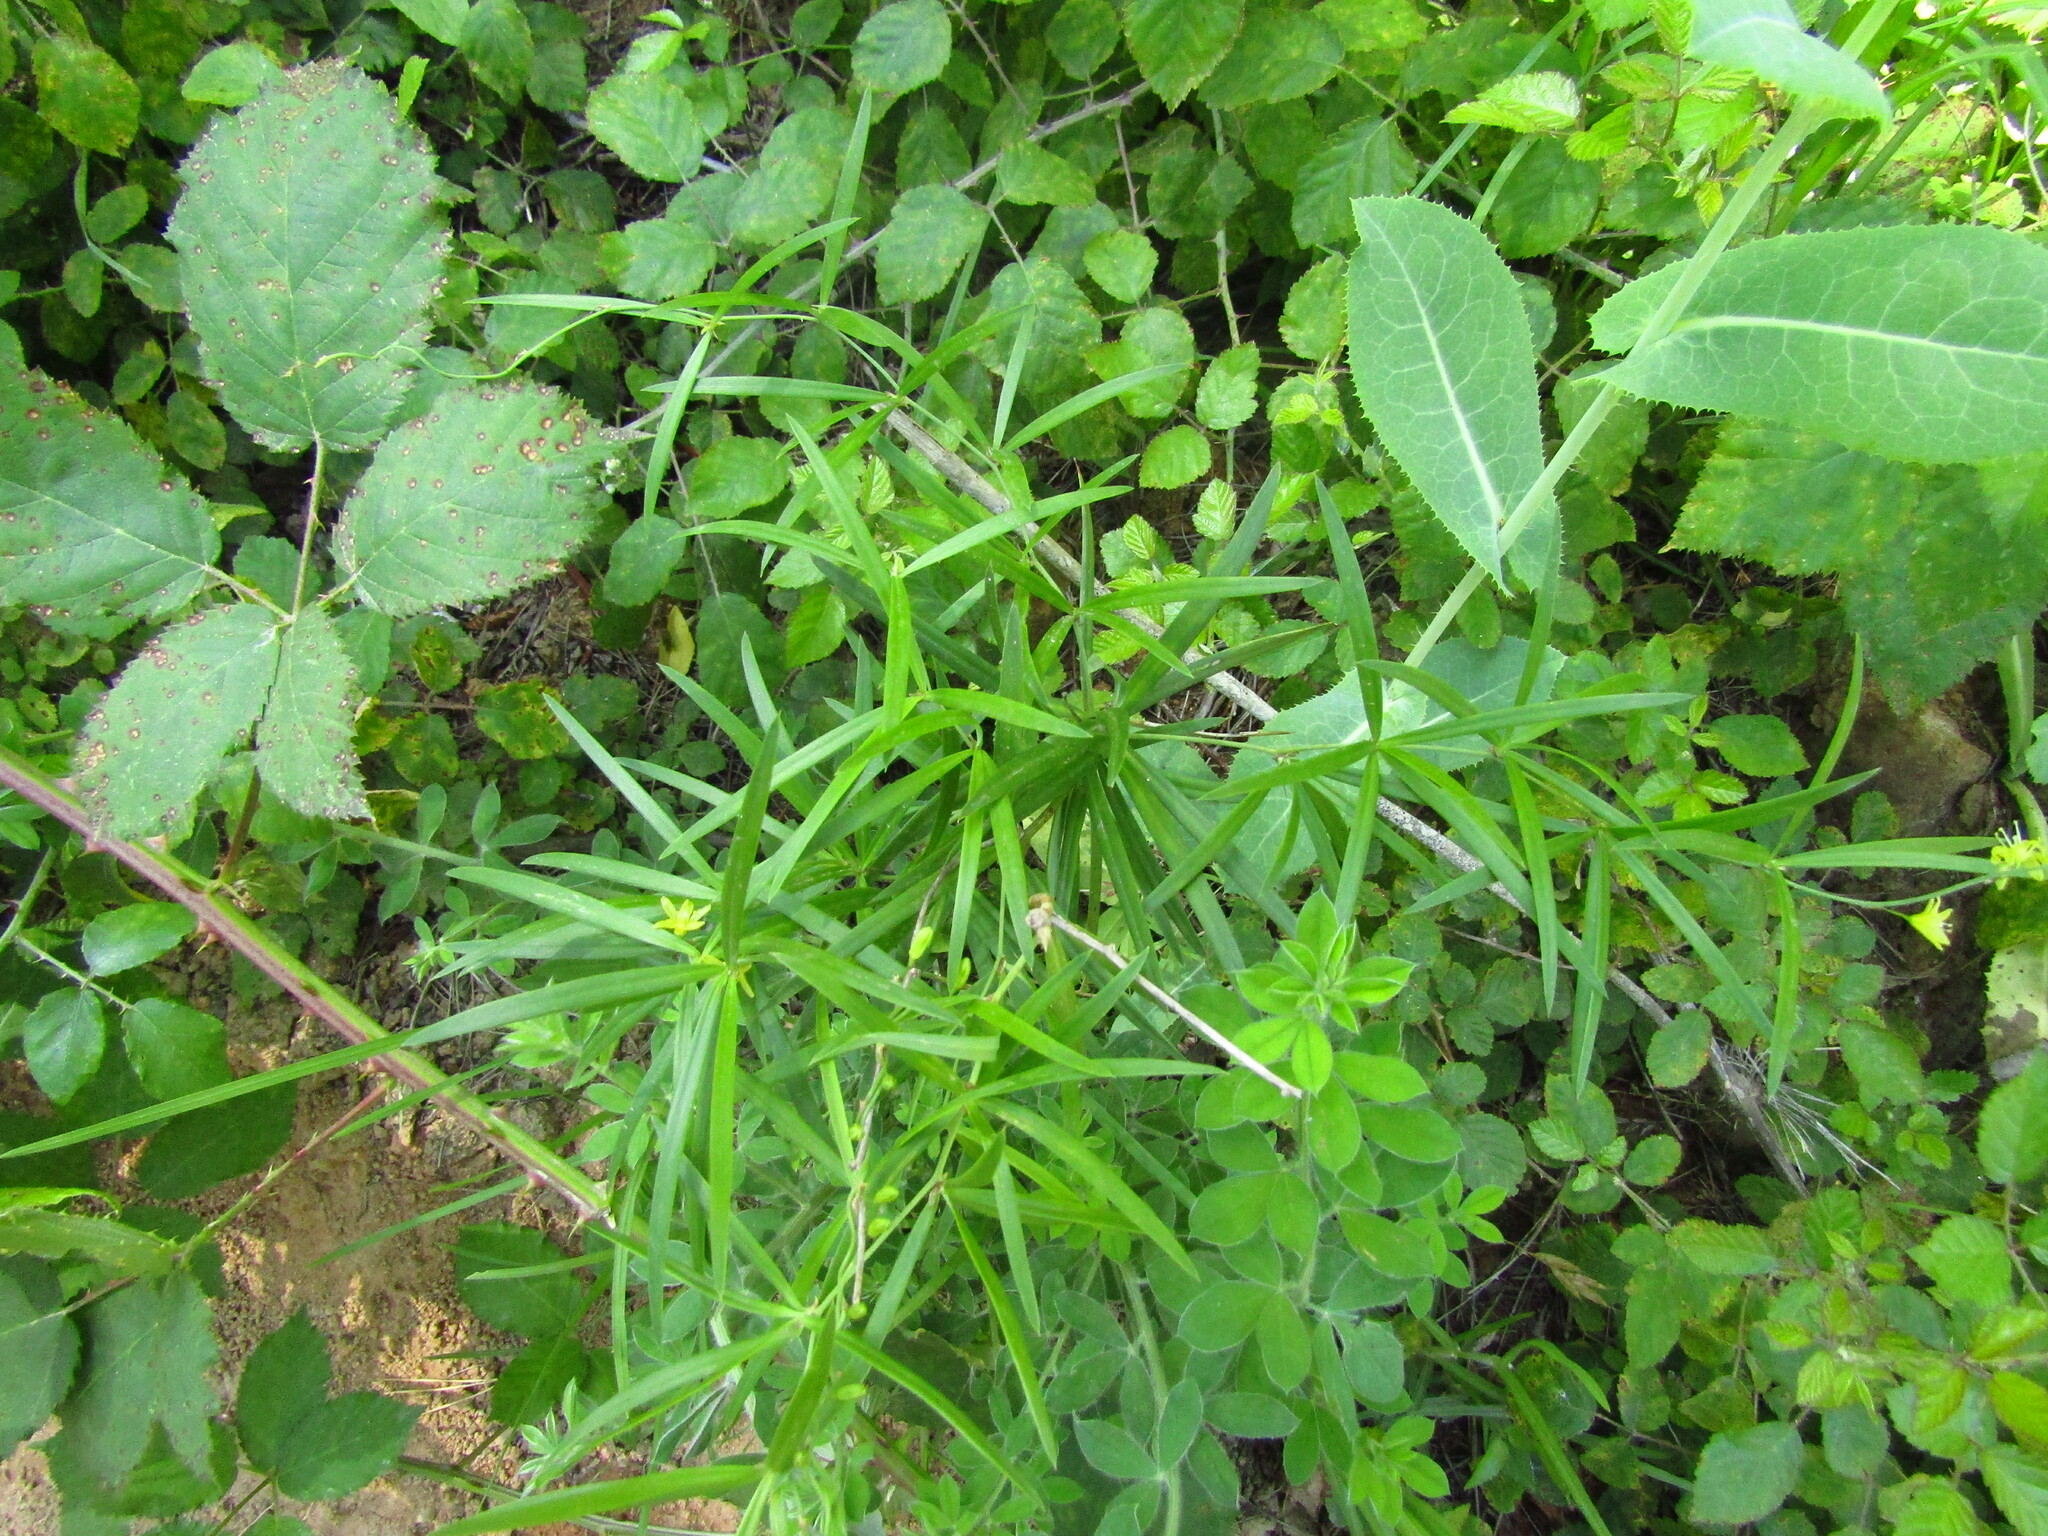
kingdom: Plantae
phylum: Tracheophyta
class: Liliopsida
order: Asparagales
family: Asparagaceae
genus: Herreria
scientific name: Herreria stellata
